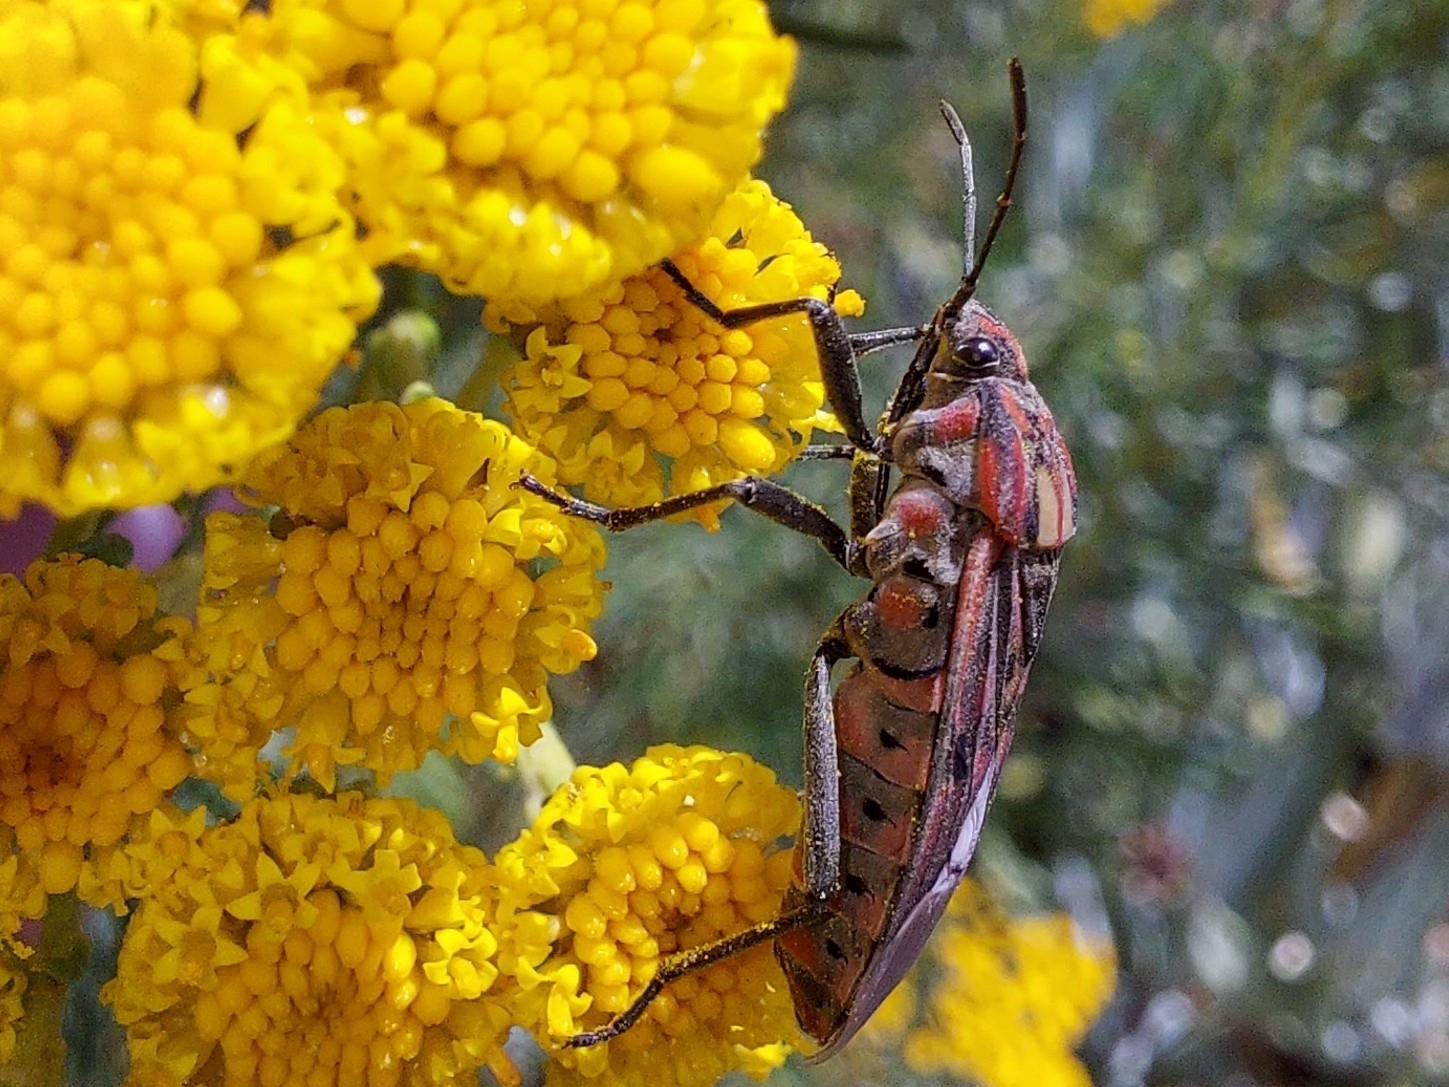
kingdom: Animalia
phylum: Arthropoda
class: Insecta
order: Hemiptera
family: Lygaeidae
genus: Spilostethus
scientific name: Spilostethus pandurus
